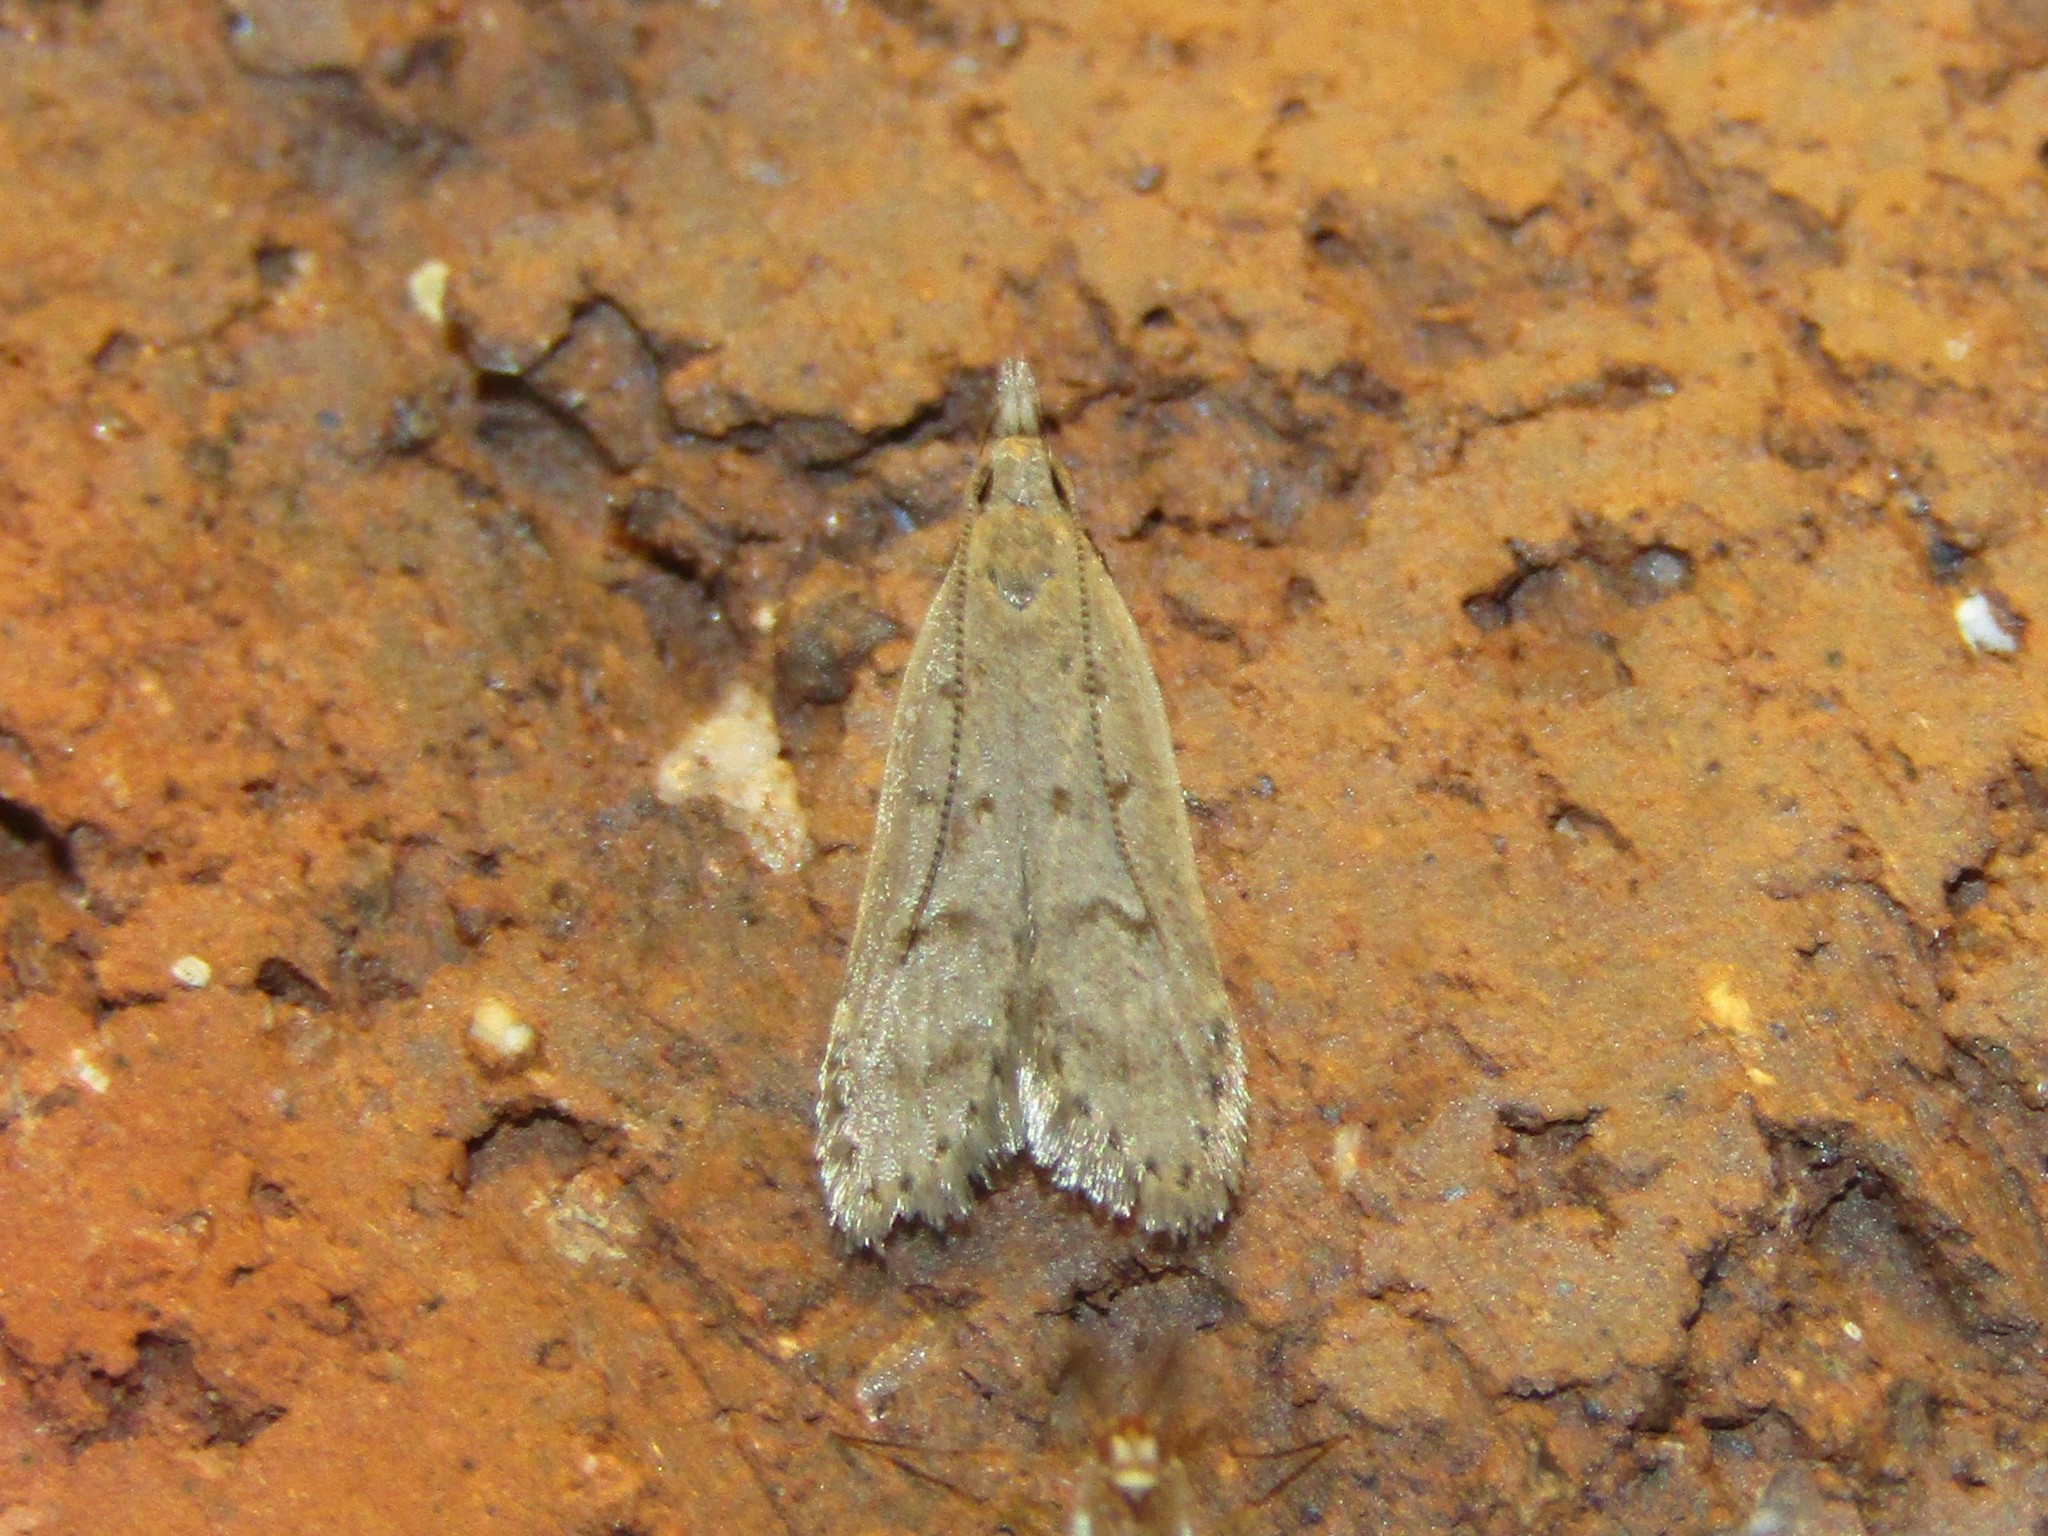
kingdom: Animalia
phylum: Arthropoda
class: Insecta
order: Lepidoptera
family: Gelechiidae
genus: Dichomeris
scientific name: Dichomeris punctidiscellus
